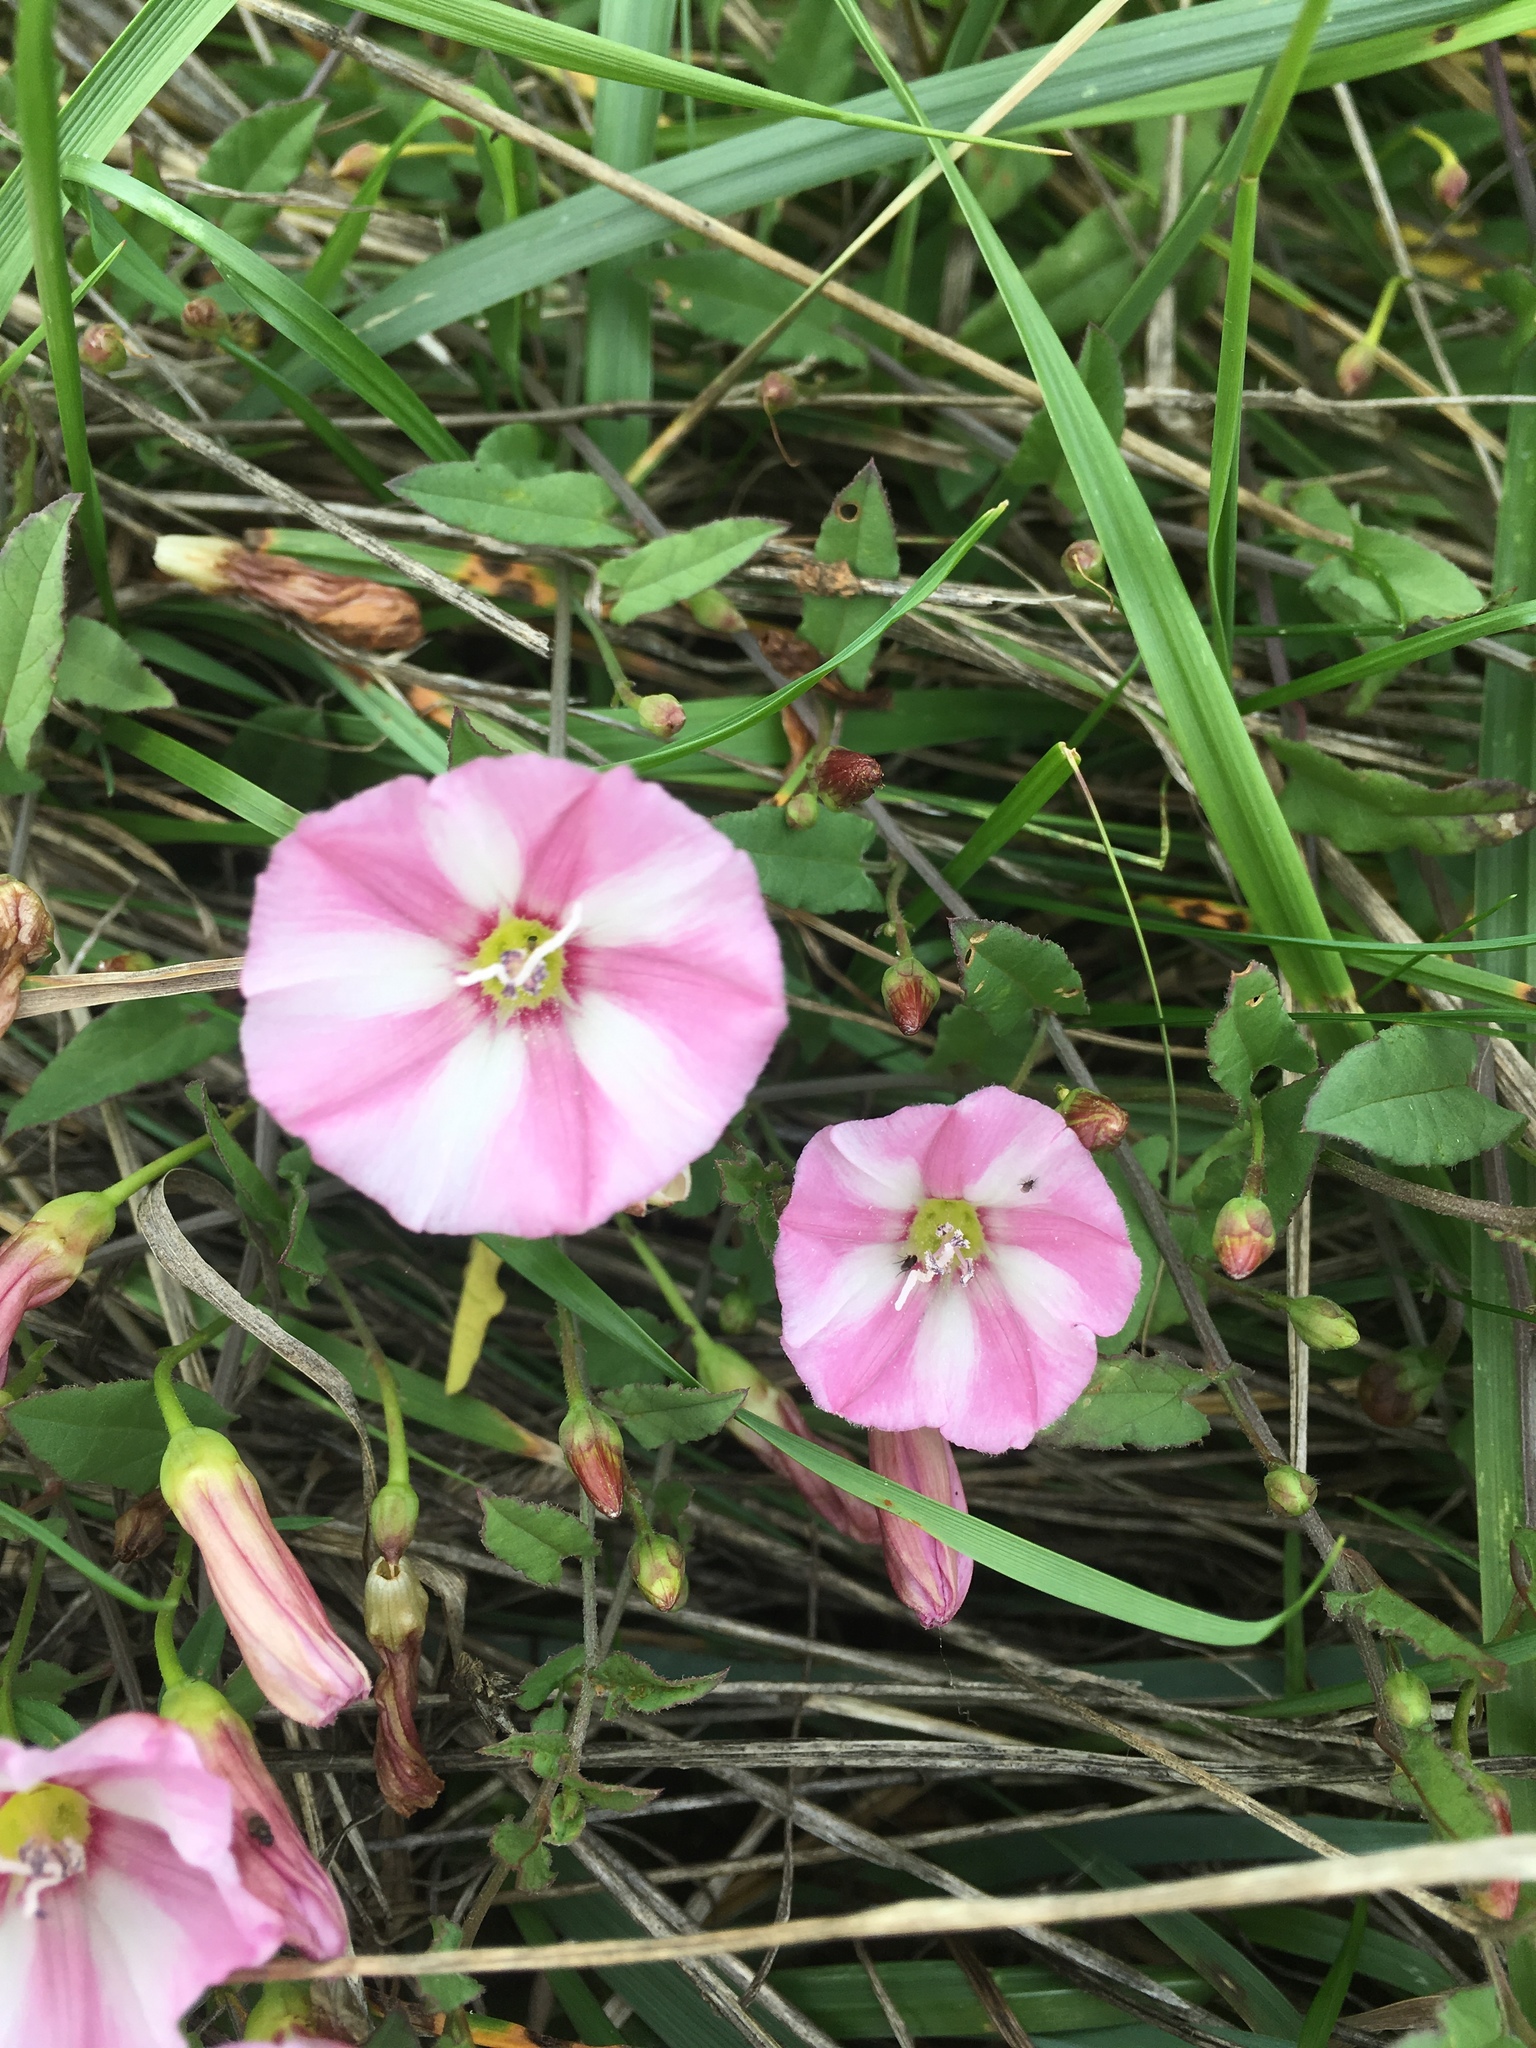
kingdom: Plantae
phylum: Tracheophyta
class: Magnoliopsida
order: Solanales
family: Convolvulaceae
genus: Convolvulus
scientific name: Convolvulus arvensis
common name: Field bindweed
